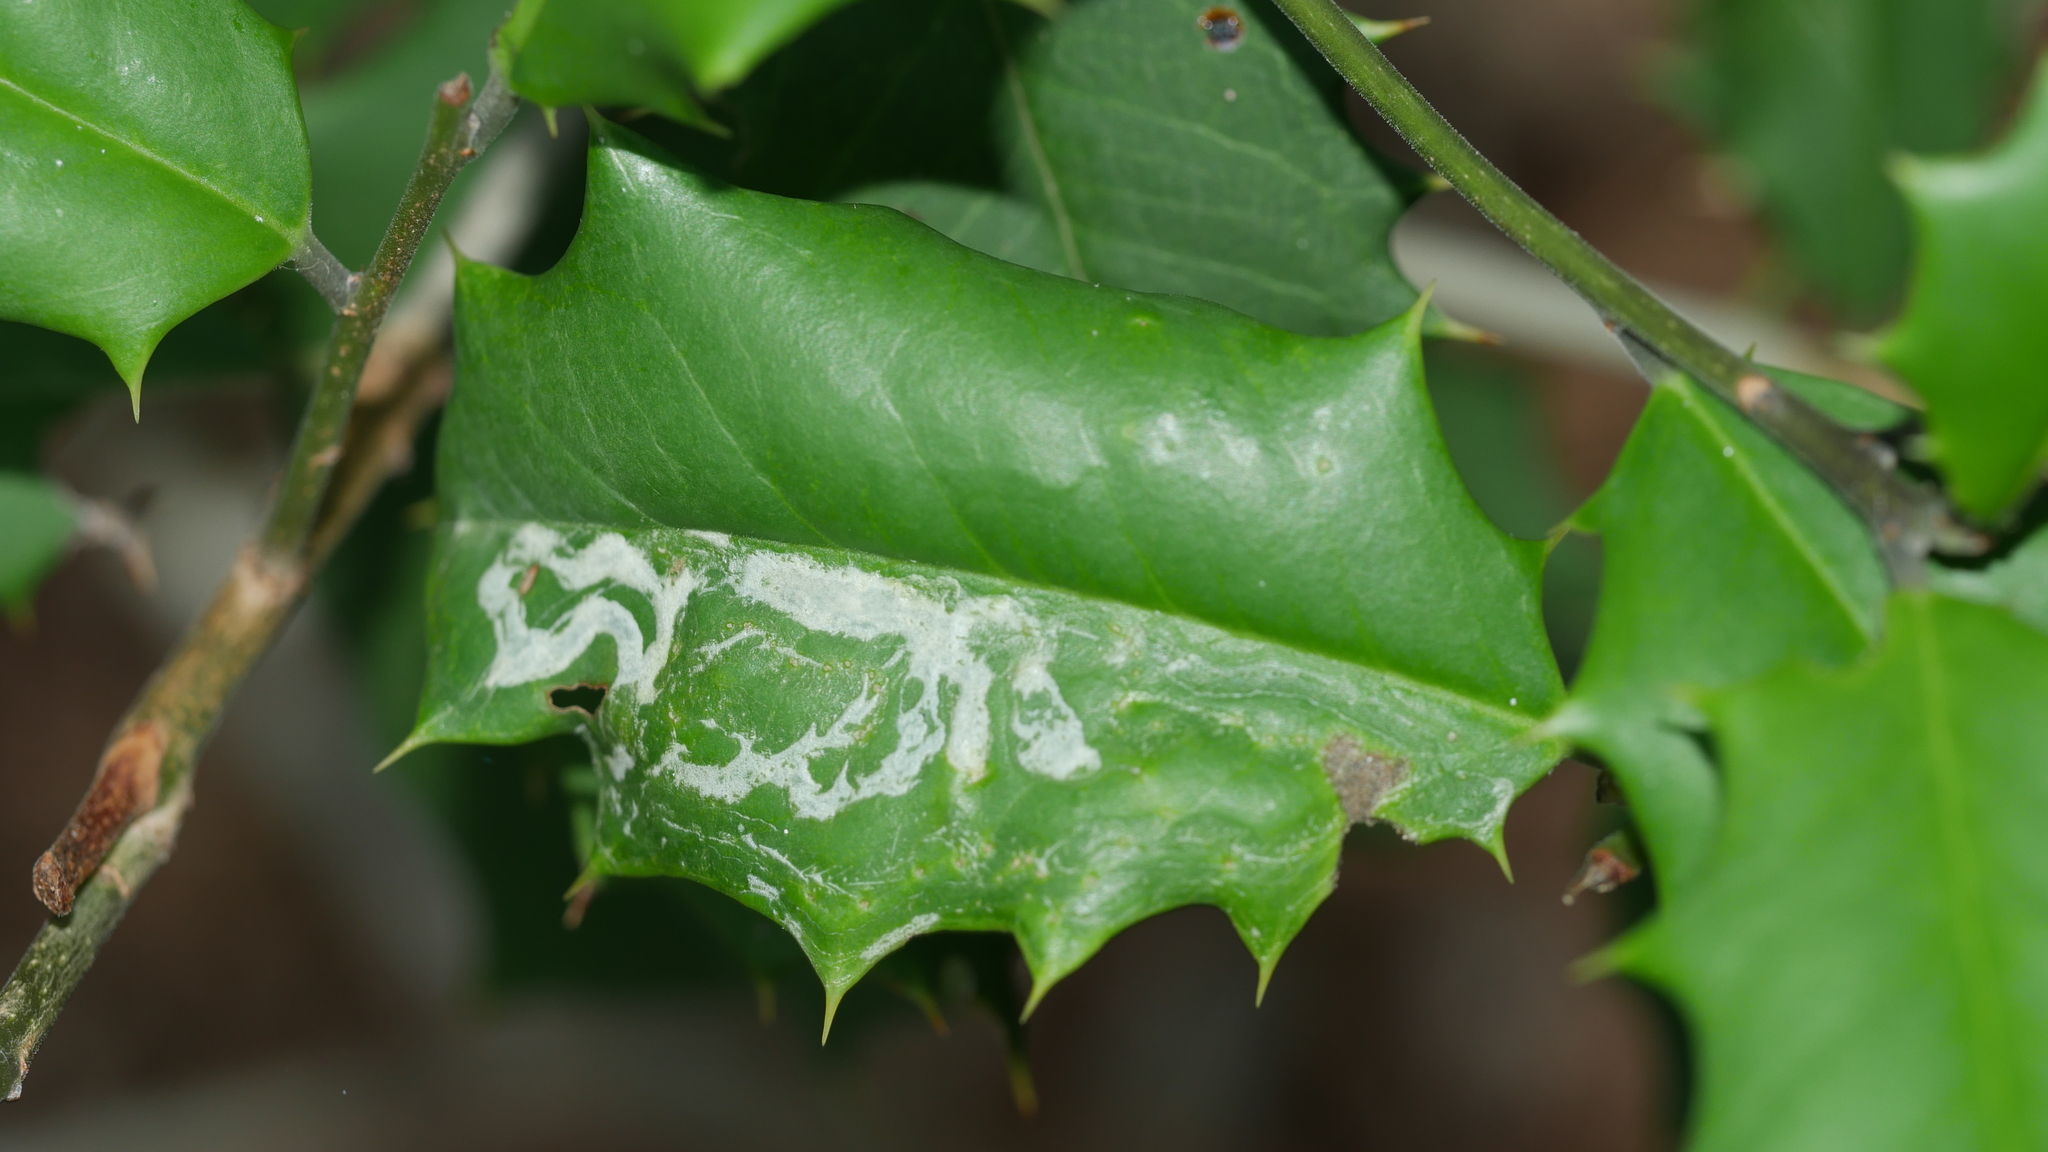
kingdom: Animalia
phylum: Arthropoda
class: Insecta
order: Diptera
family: Agromyzidae
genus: Phytomyza
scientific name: Phytomyza opacae
